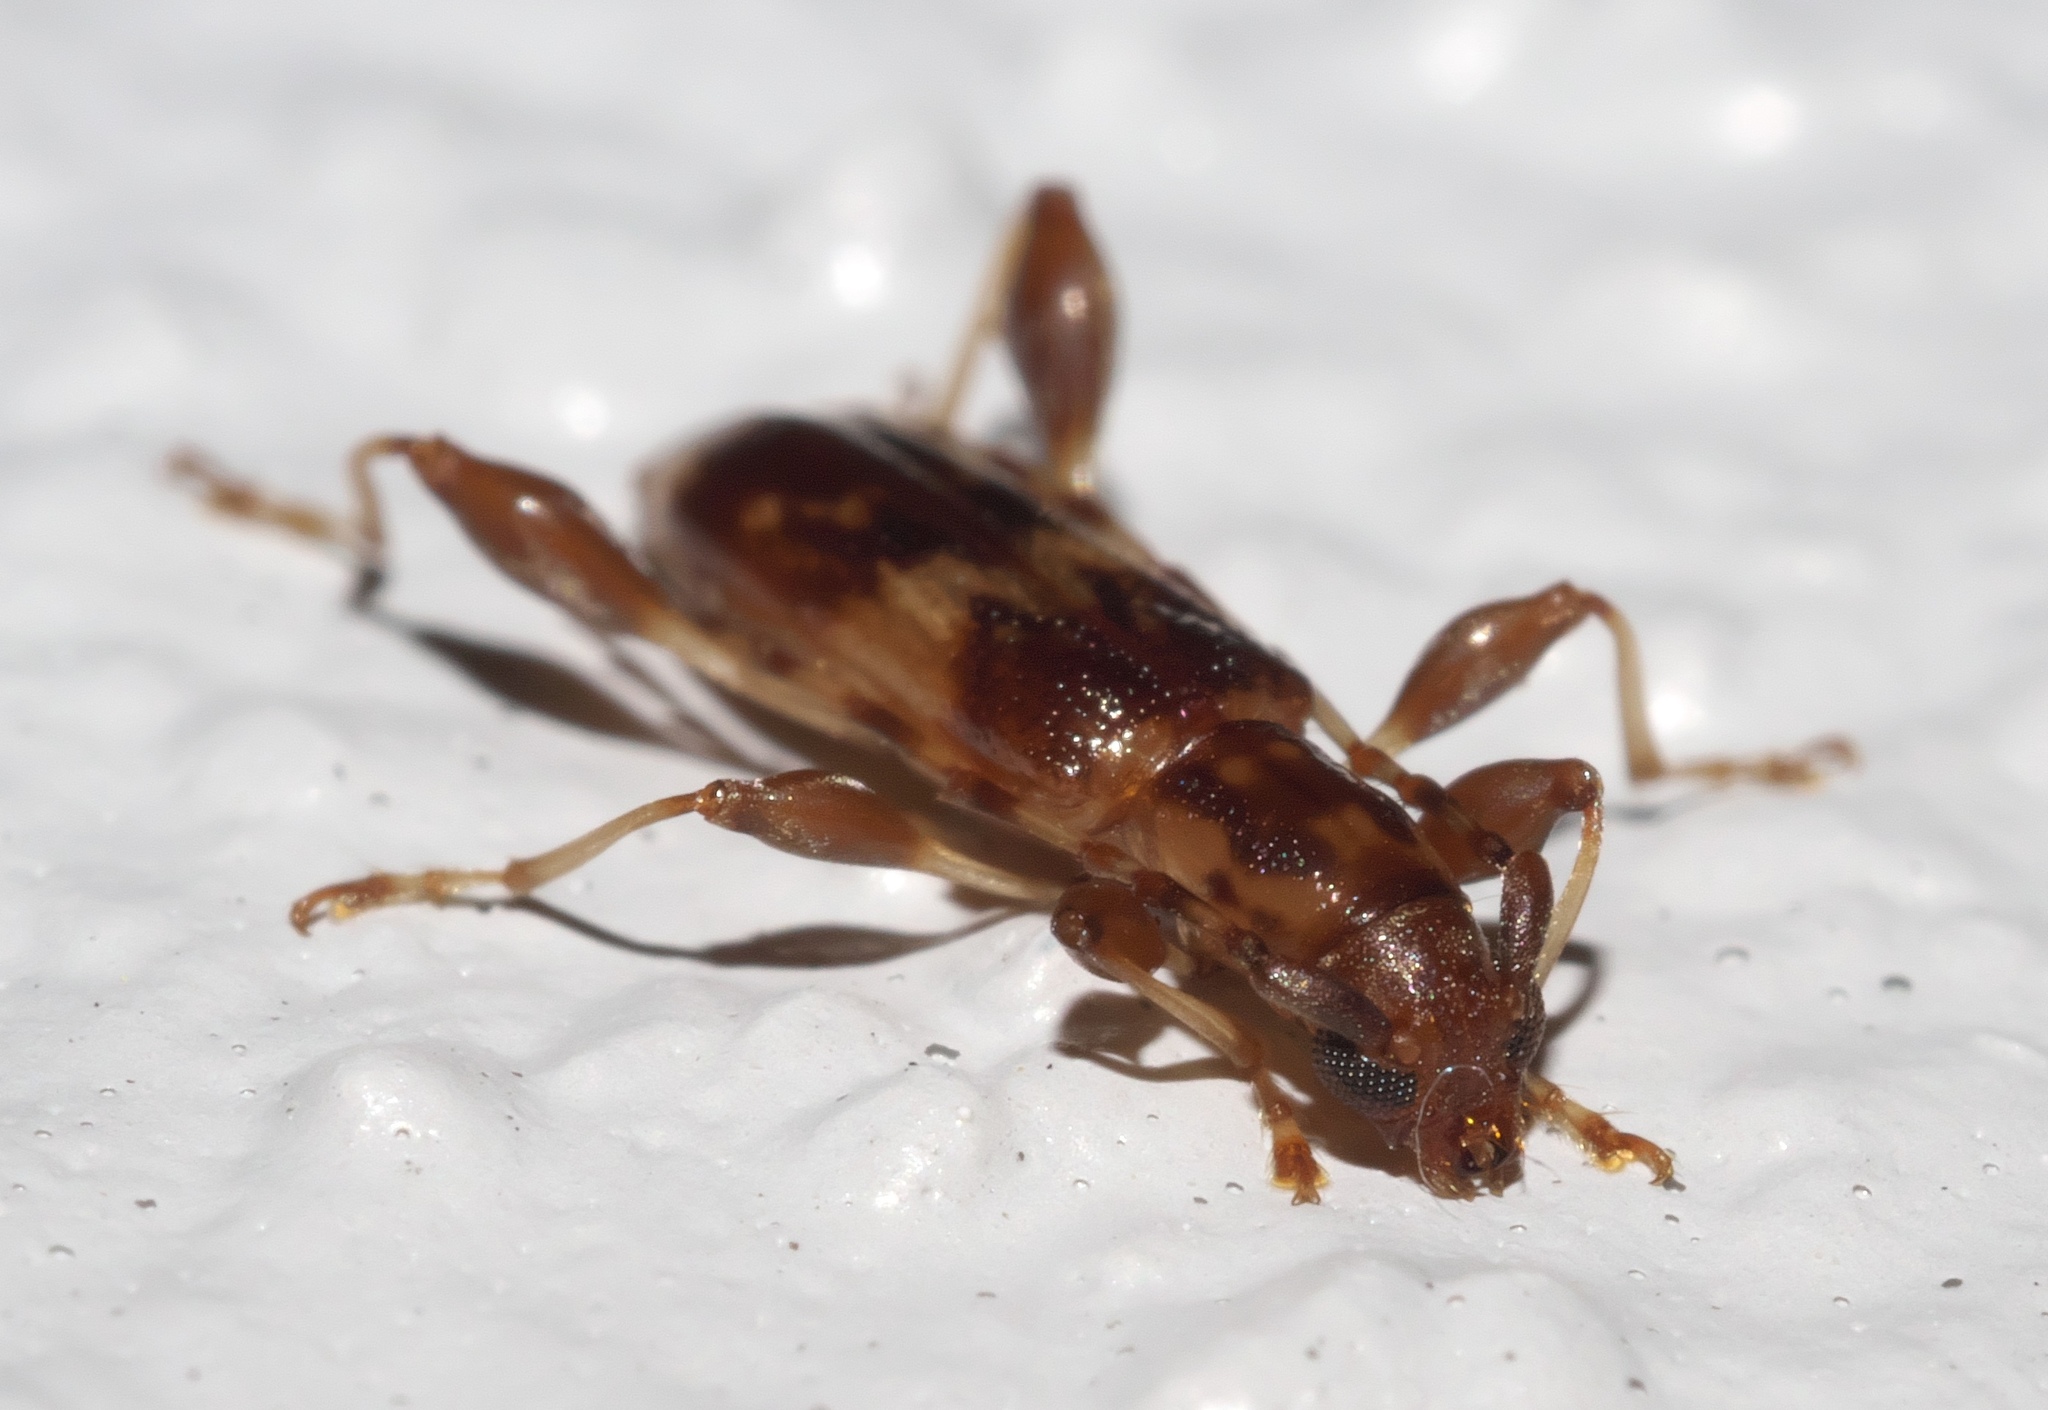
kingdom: Animalia
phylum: Arthropoda
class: Insecta
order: Coleoptera
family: Cerambycidae
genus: Plectromerus
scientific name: Plectromerus dentipes
